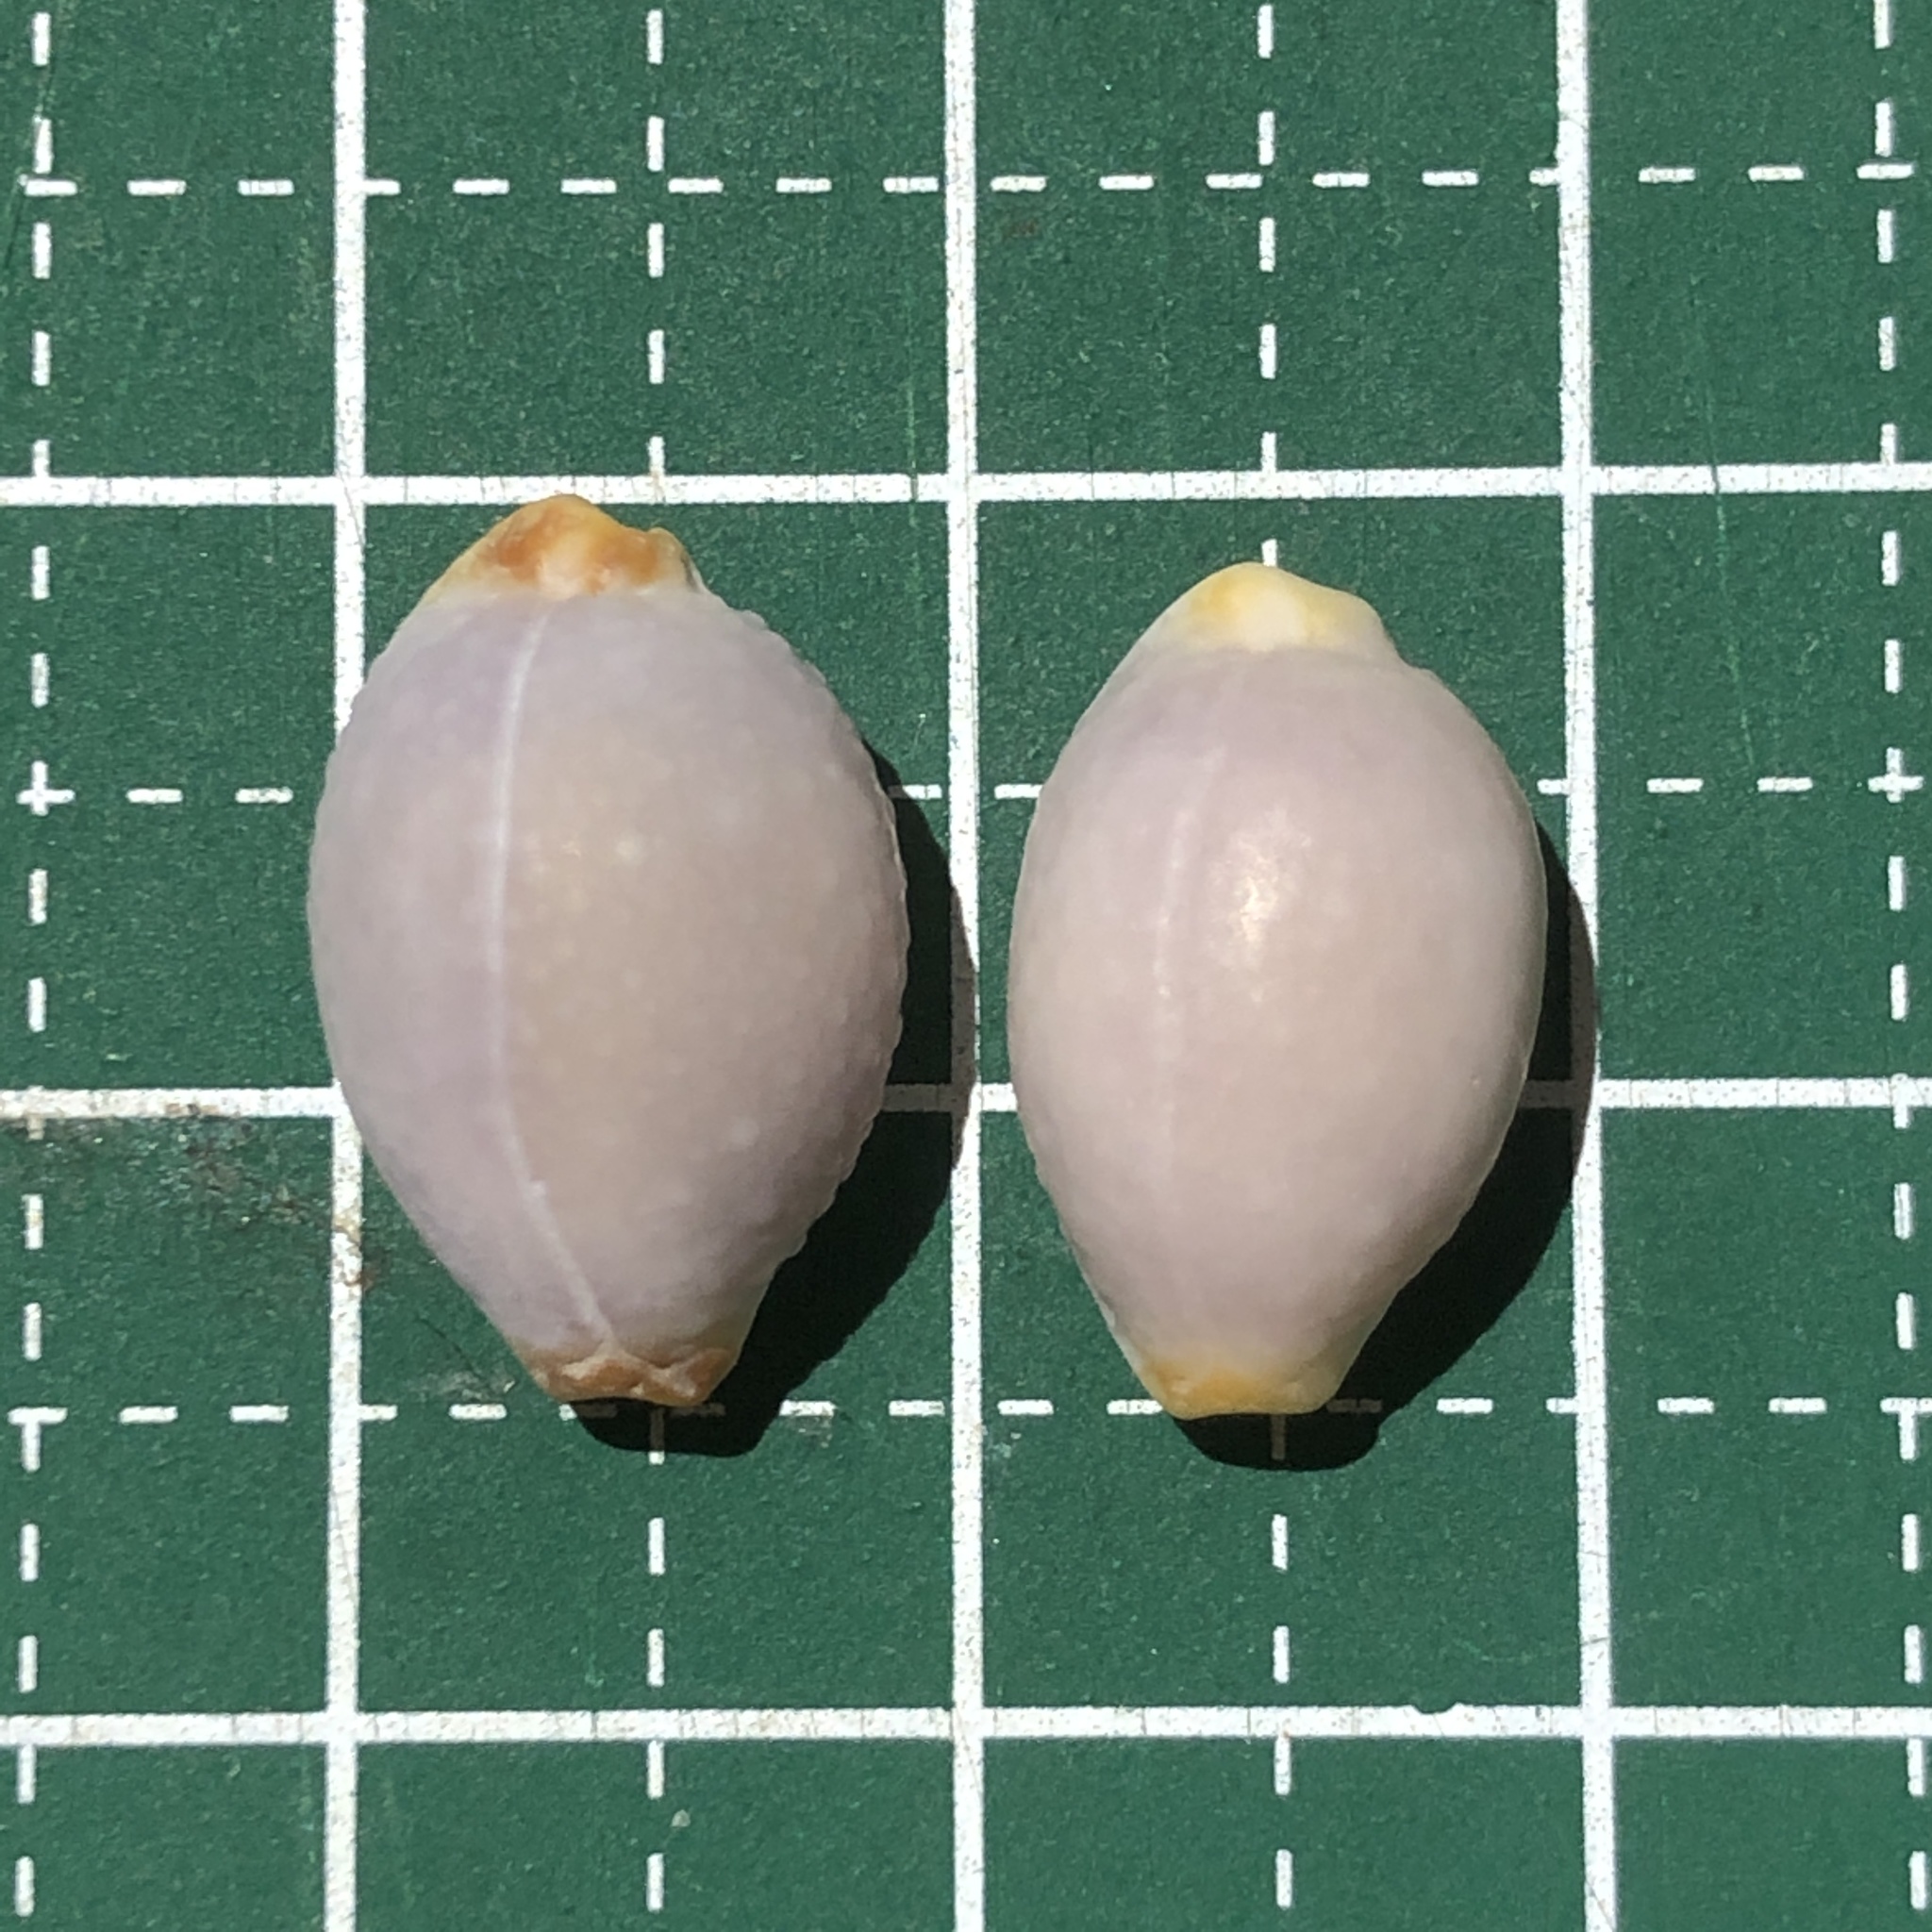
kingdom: Animalia
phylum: Mollusca
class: Gastropoda
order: Littorinimorpha
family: Cypraeidae
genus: Staphylaea
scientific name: Staphylaea staphylaea
